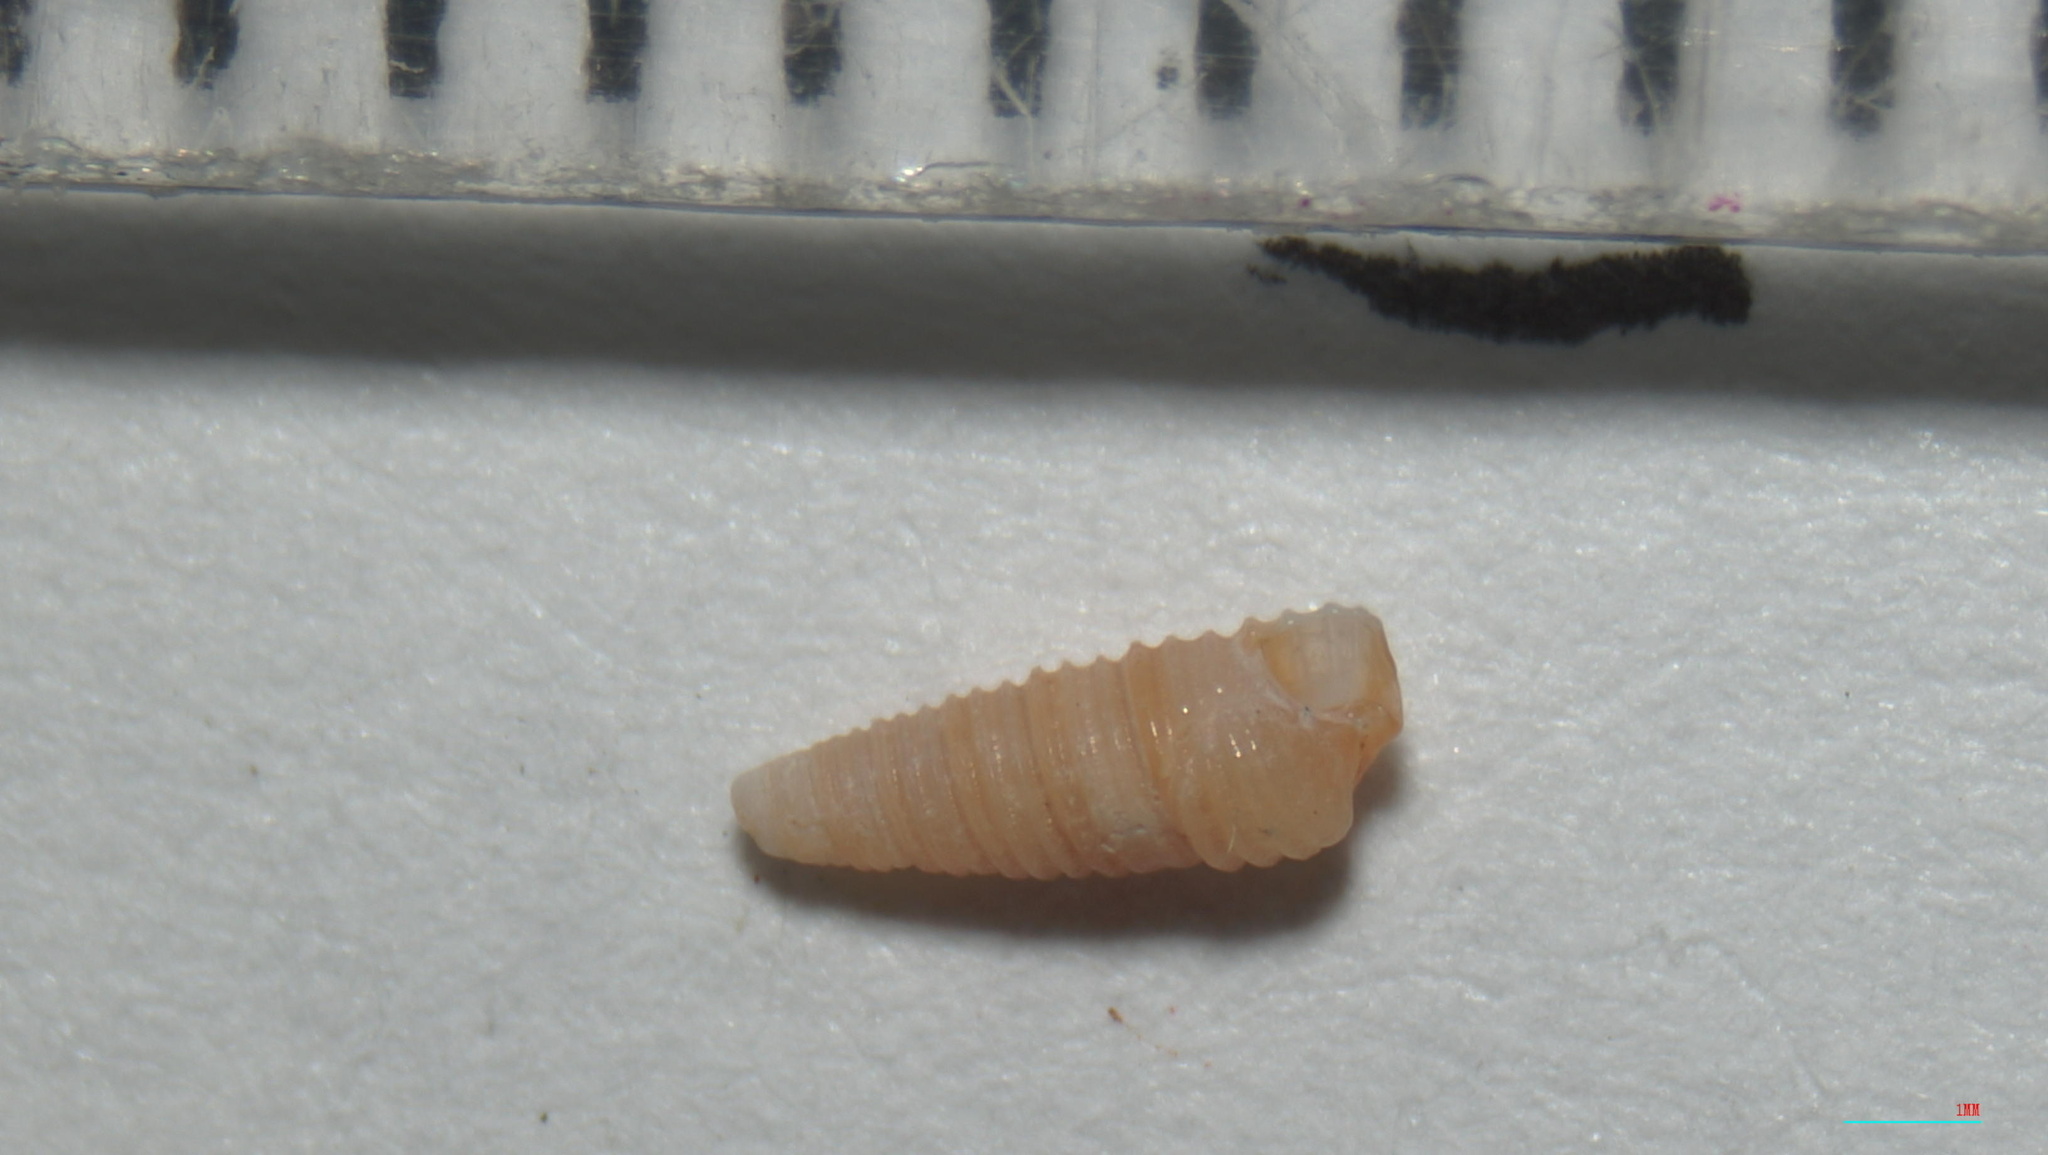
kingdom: Animalia
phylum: Mollusca
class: Gastropoda
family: Cerithiopsidae
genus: Seila
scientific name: Seila adamsii
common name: Adam's miniature cerith
